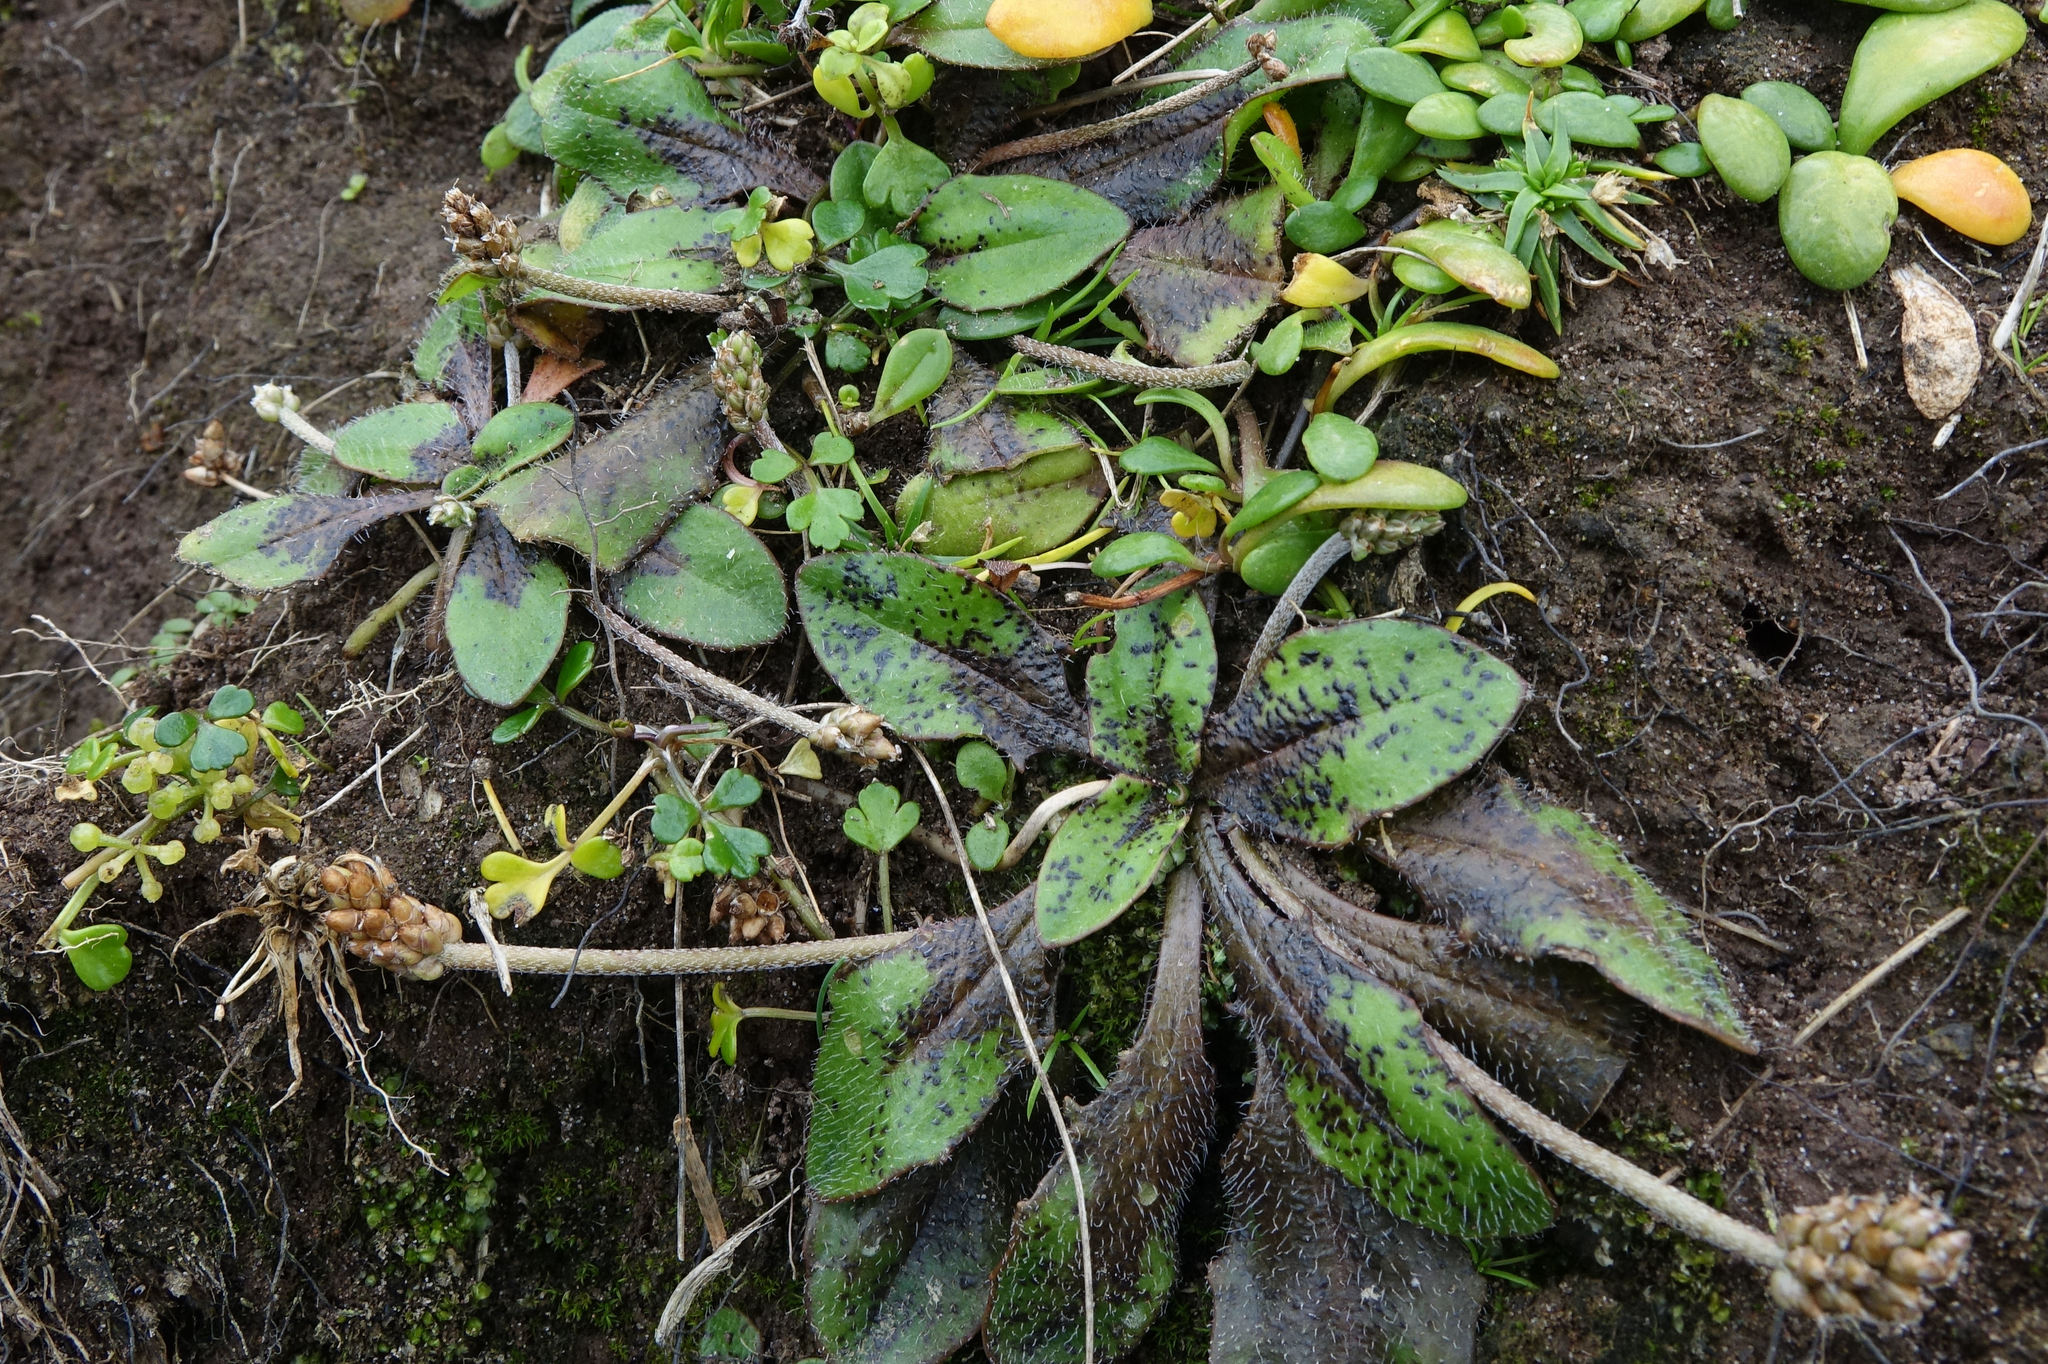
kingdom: Plantae
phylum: Tracheophyta
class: Magnoliopsida
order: Lamiales
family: Plantaginaceae
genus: Plantago
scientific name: Plantago raoulii
